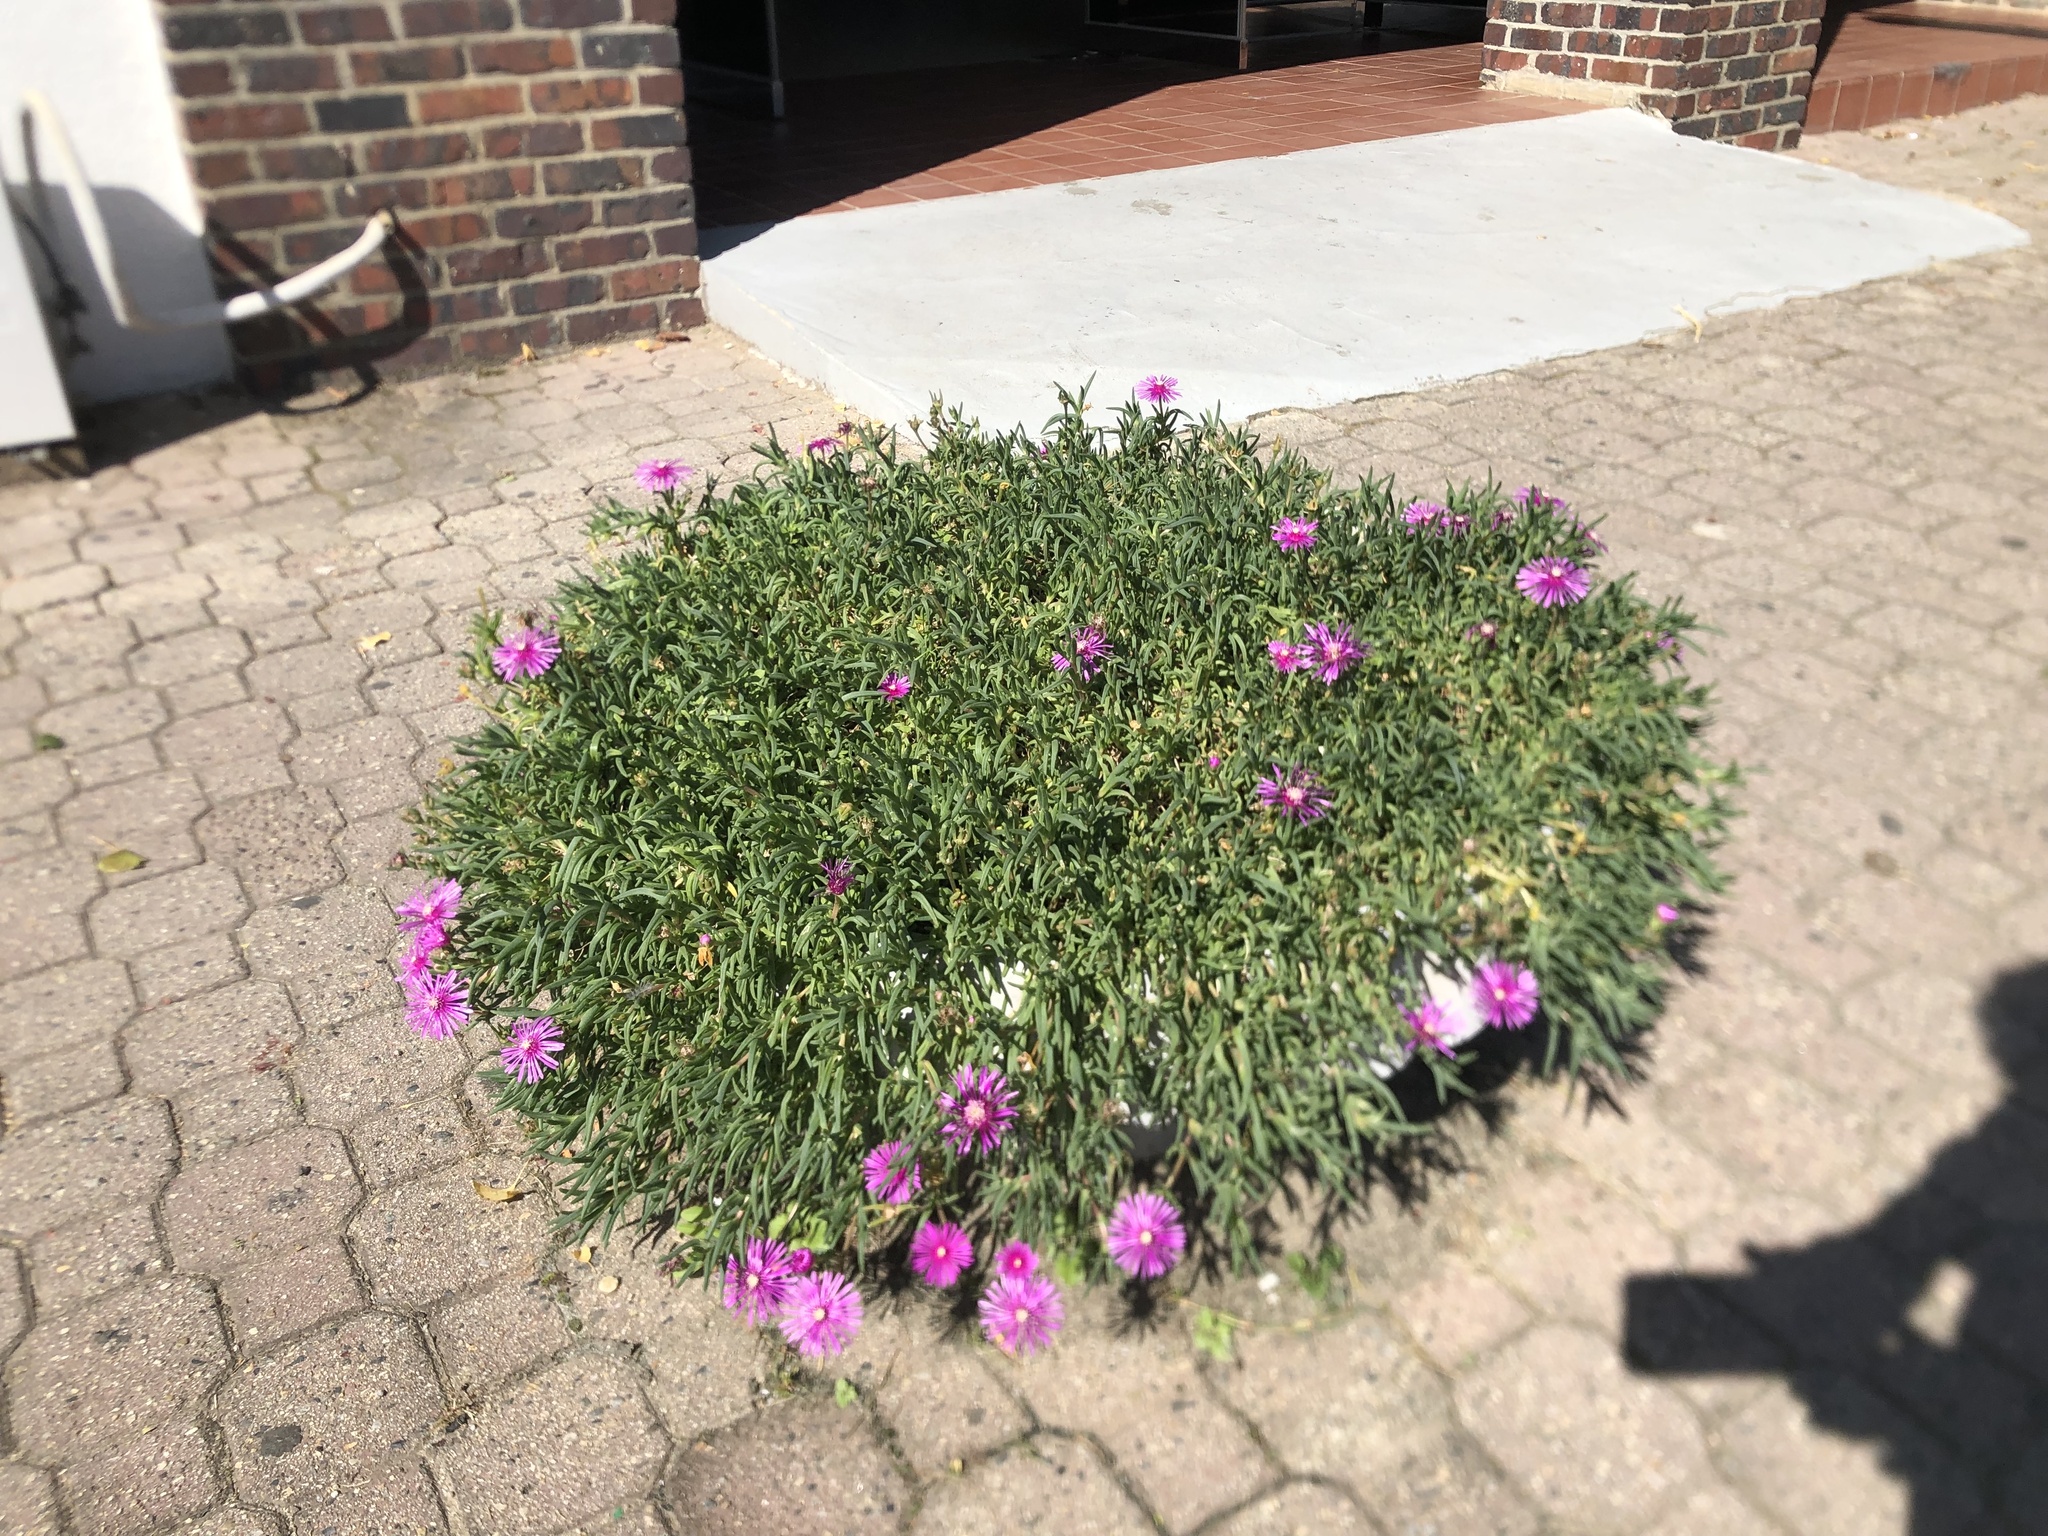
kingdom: Plantae
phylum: Tracheophyta
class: Magnoliopsida
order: Caryophyllales
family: Aizoaceae
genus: Delosperma
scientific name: Delosperma cooperi
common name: Hardy iceplant
